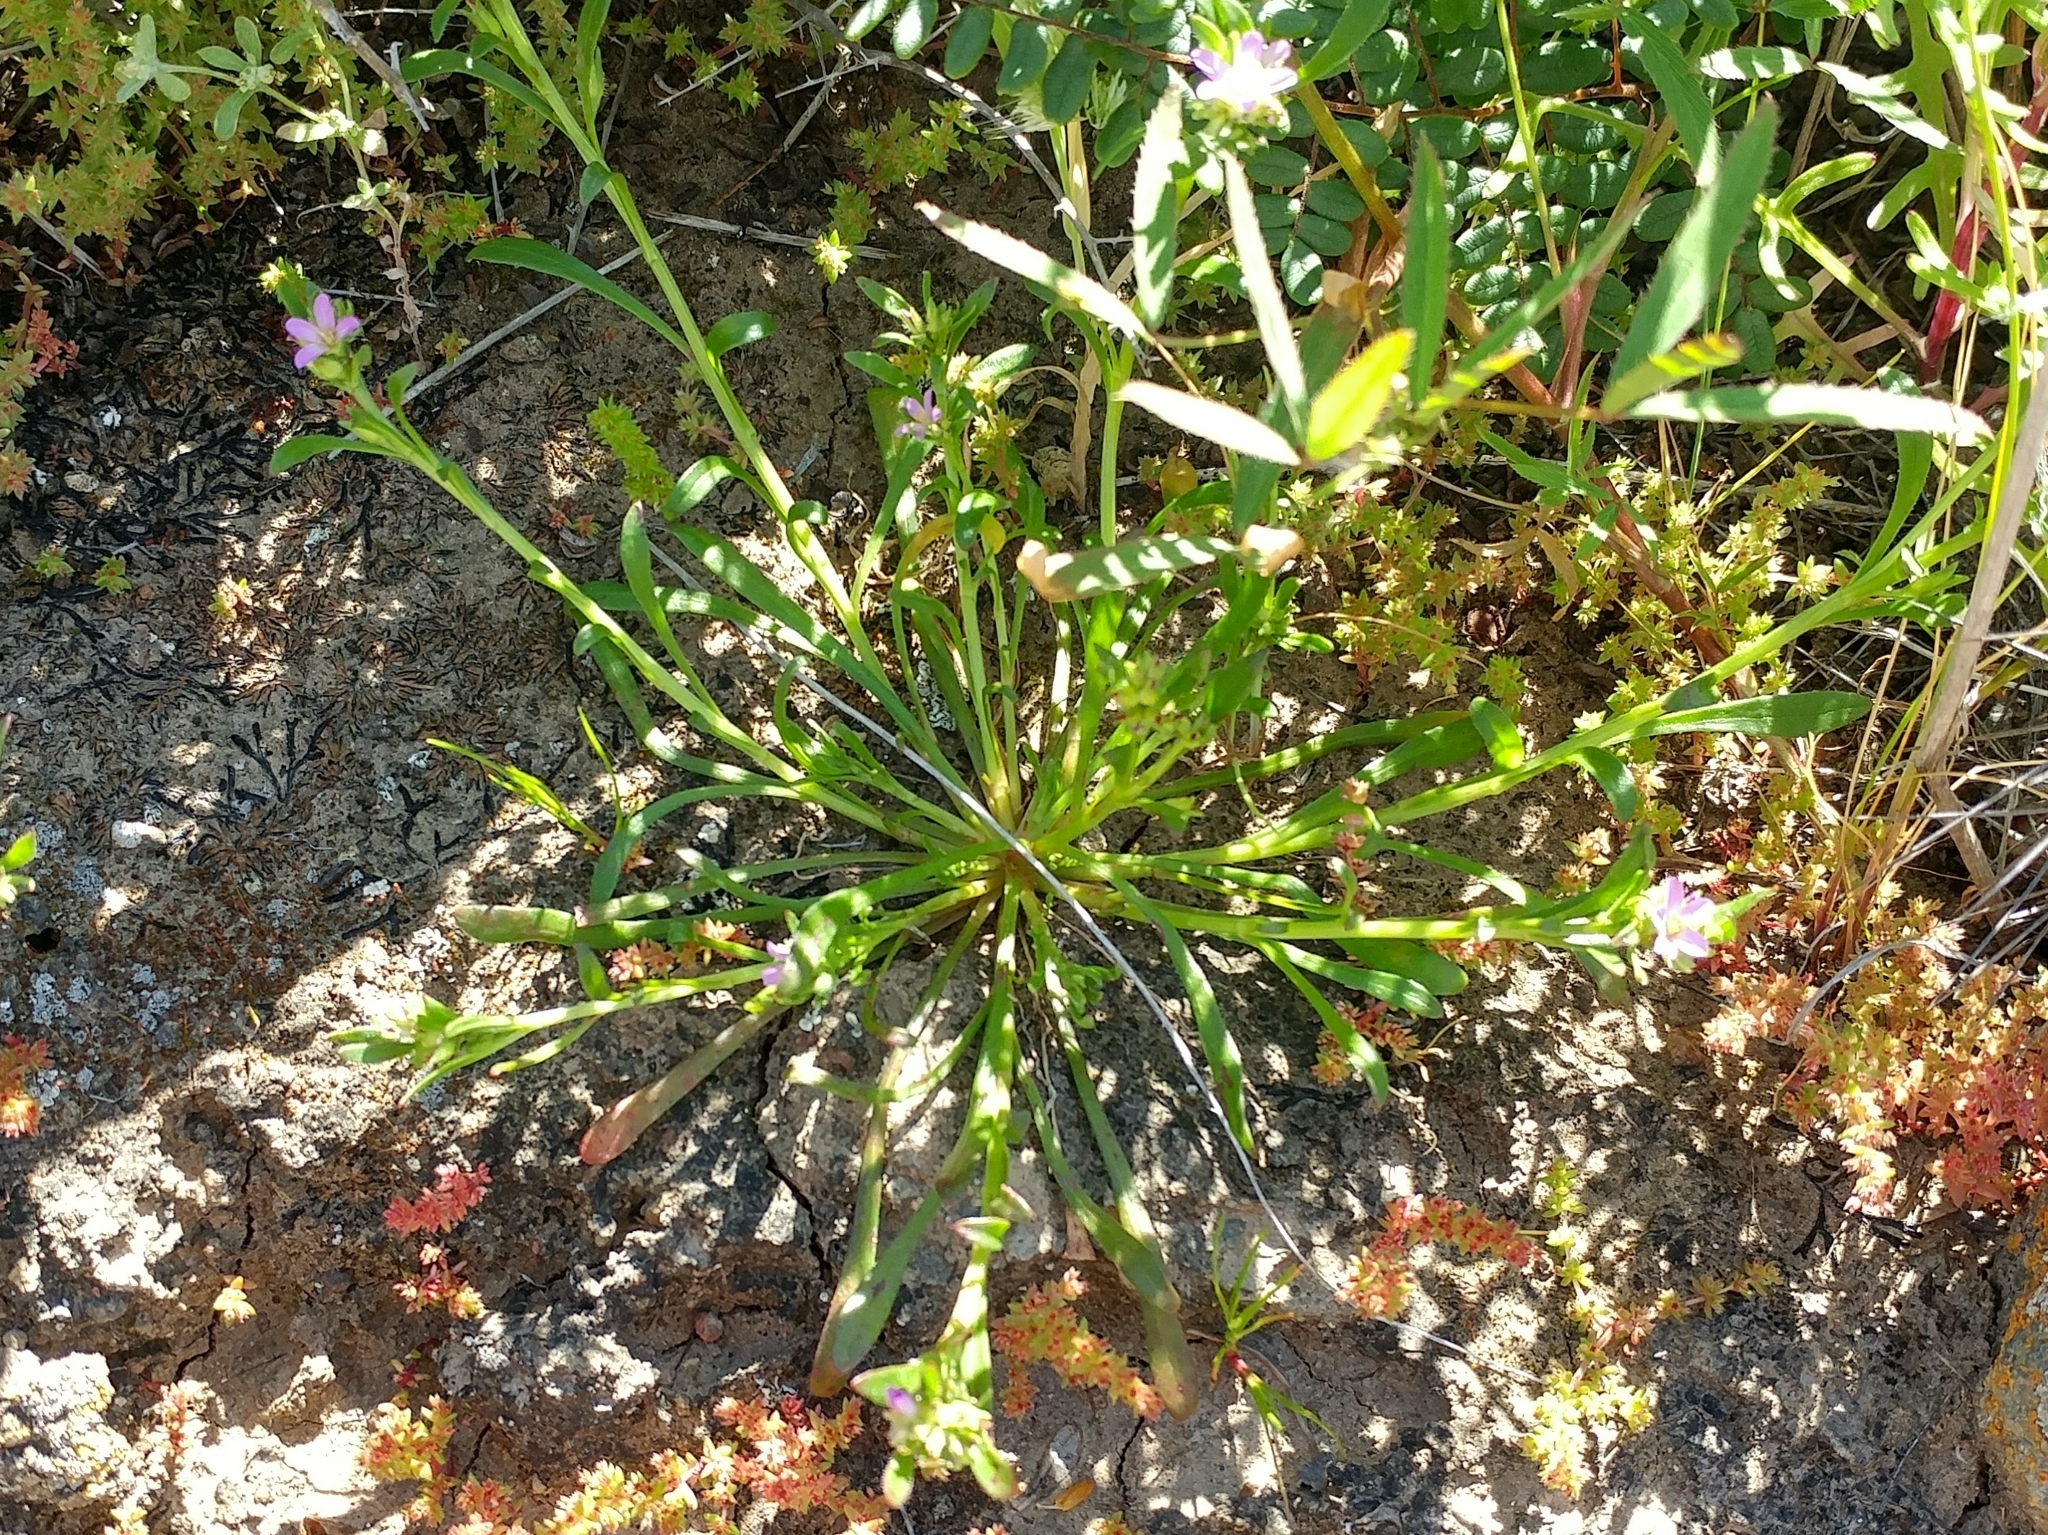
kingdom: Plantae
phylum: Tracheophyta
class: Magnoliopsida
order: Caryophyllales
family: Montiaceae
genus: Calandrinia
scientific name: Calandrinia menziesii
